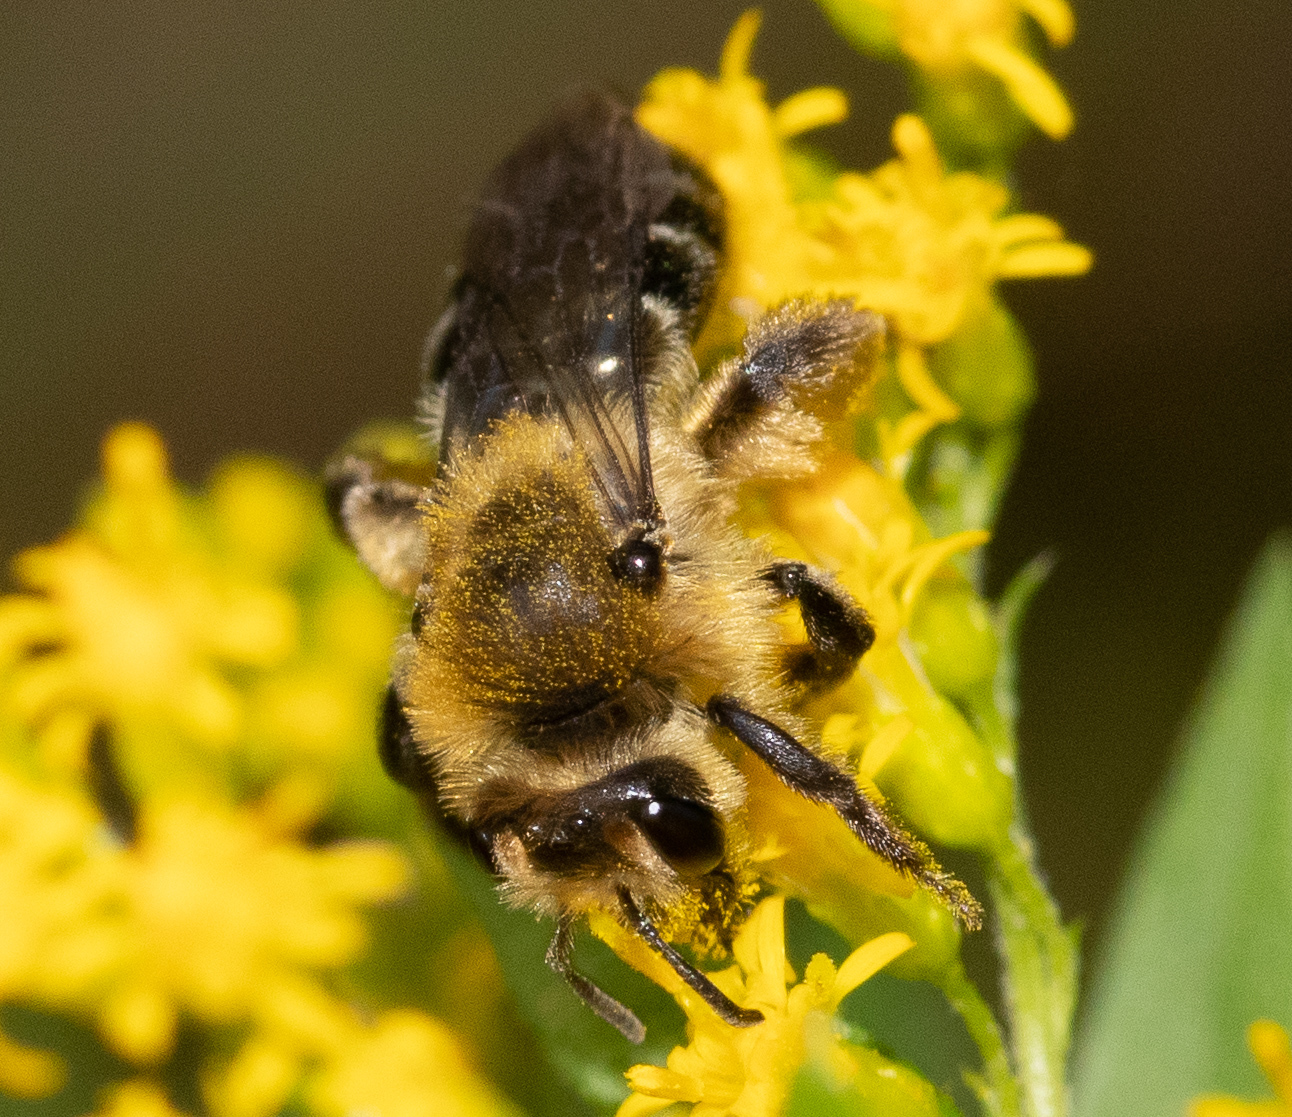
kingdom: Animalia
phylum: Arthropoda
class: Insecta
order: Hymenoptera
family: Andrenidae
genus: Andrena
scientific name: Andrena asteris
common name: Aster mining bee
